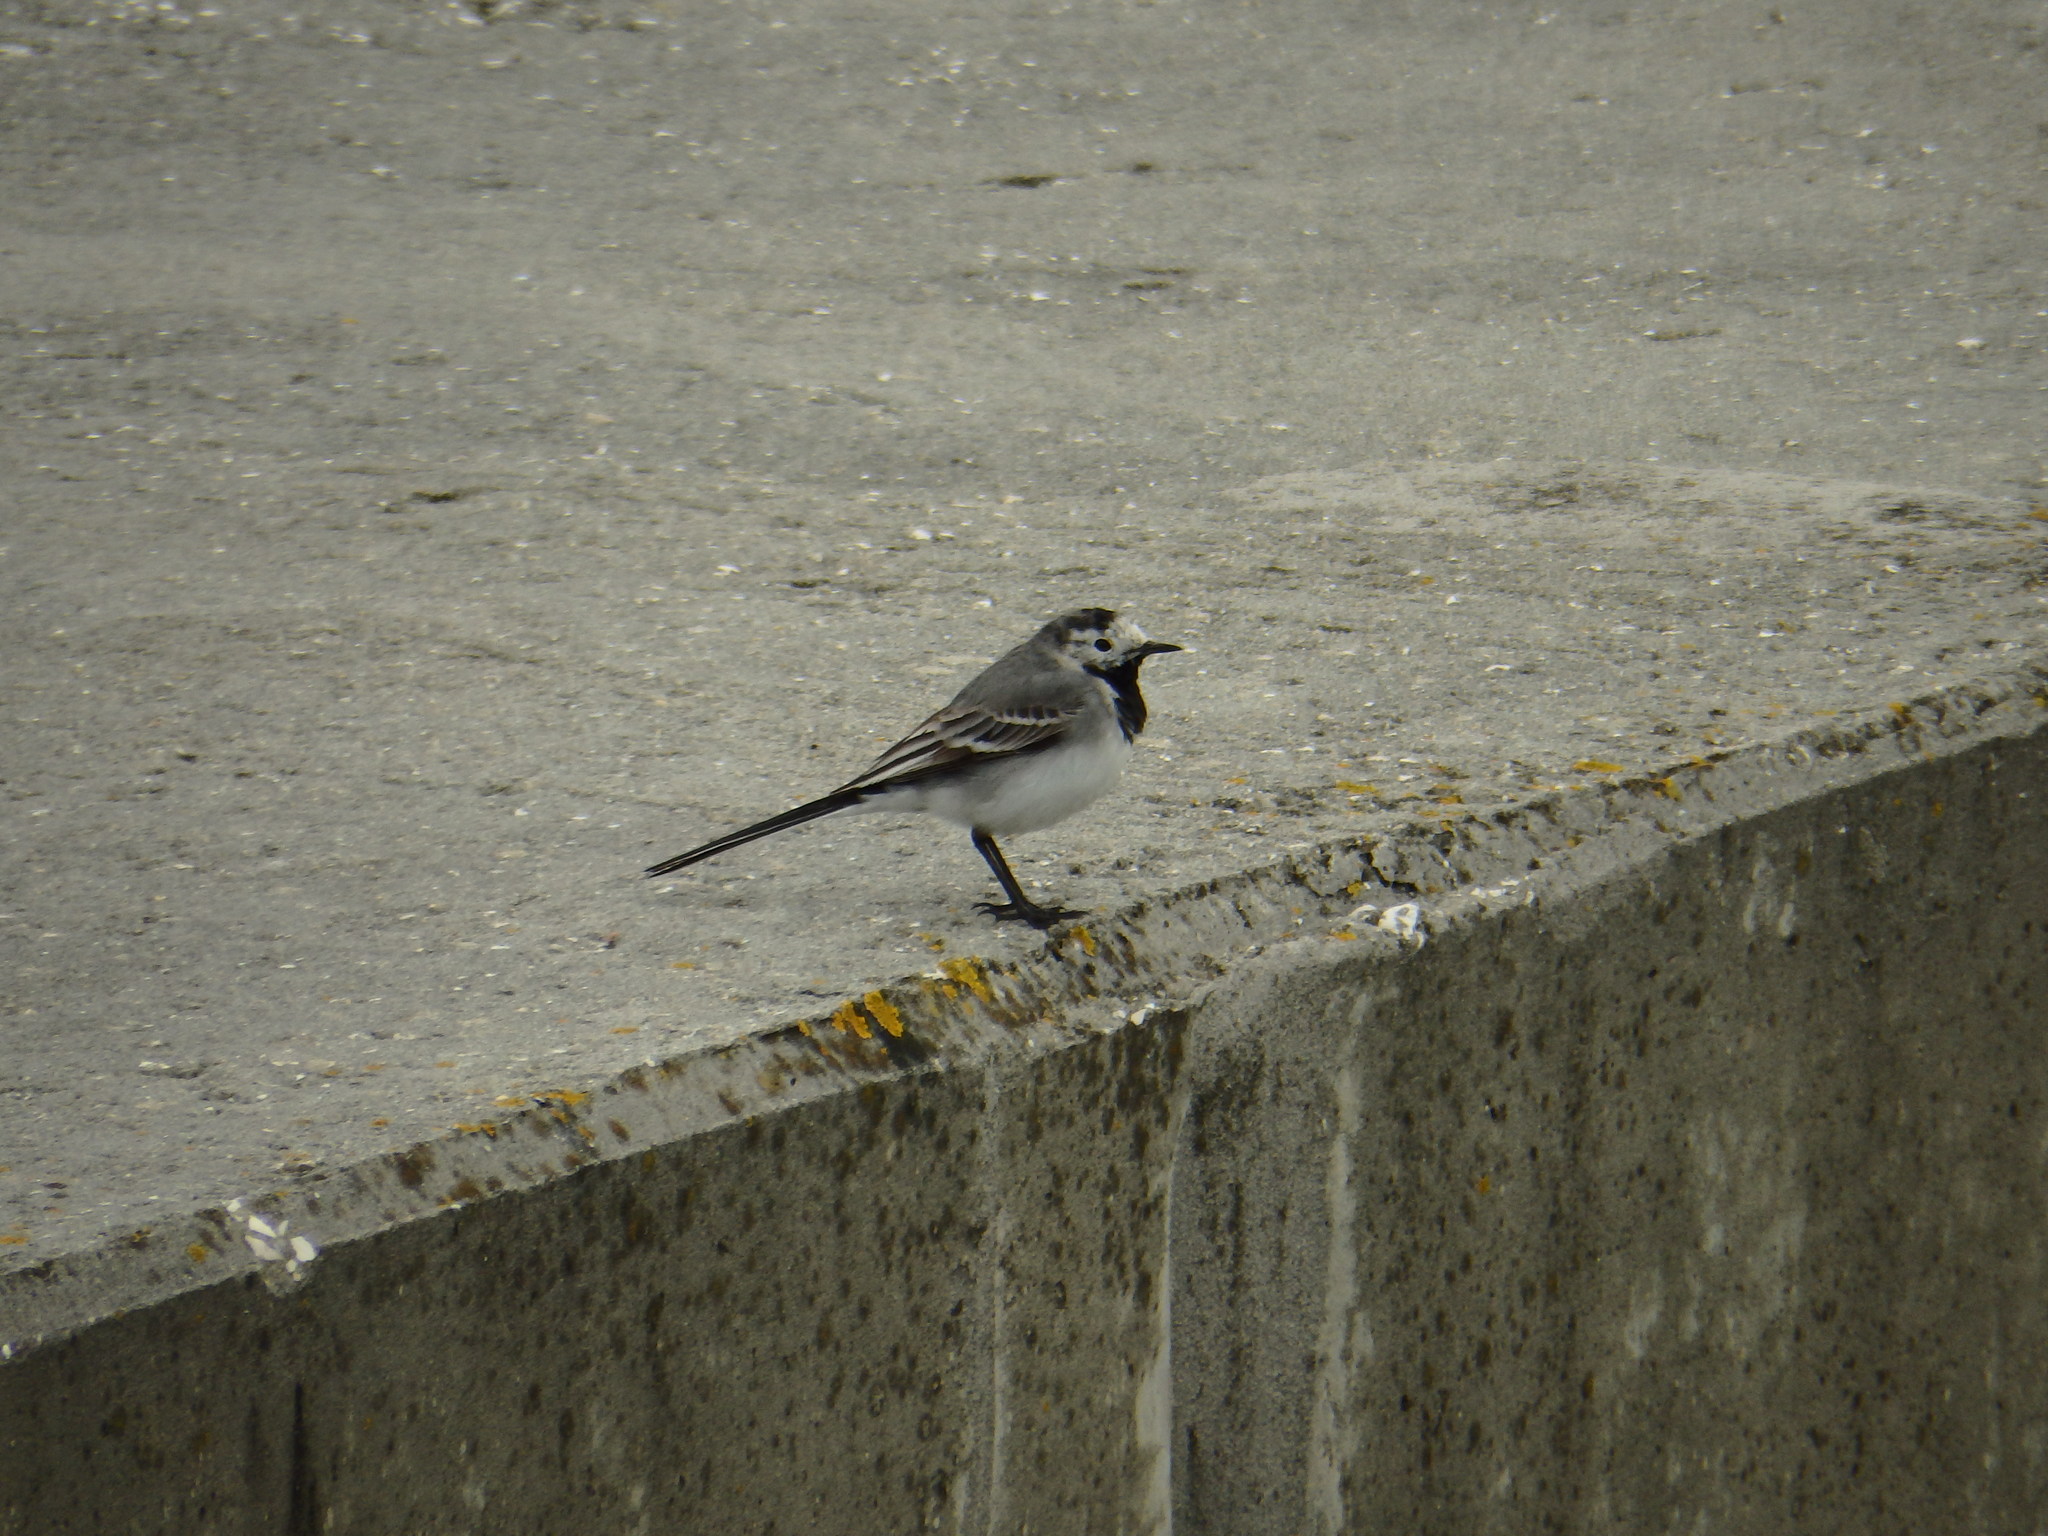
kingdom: Animalia
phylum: Chordata
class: Aves
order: Passeriformes
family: Motacillidae
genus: Motacilla
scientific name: Motacilla alba
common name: White wagtail
